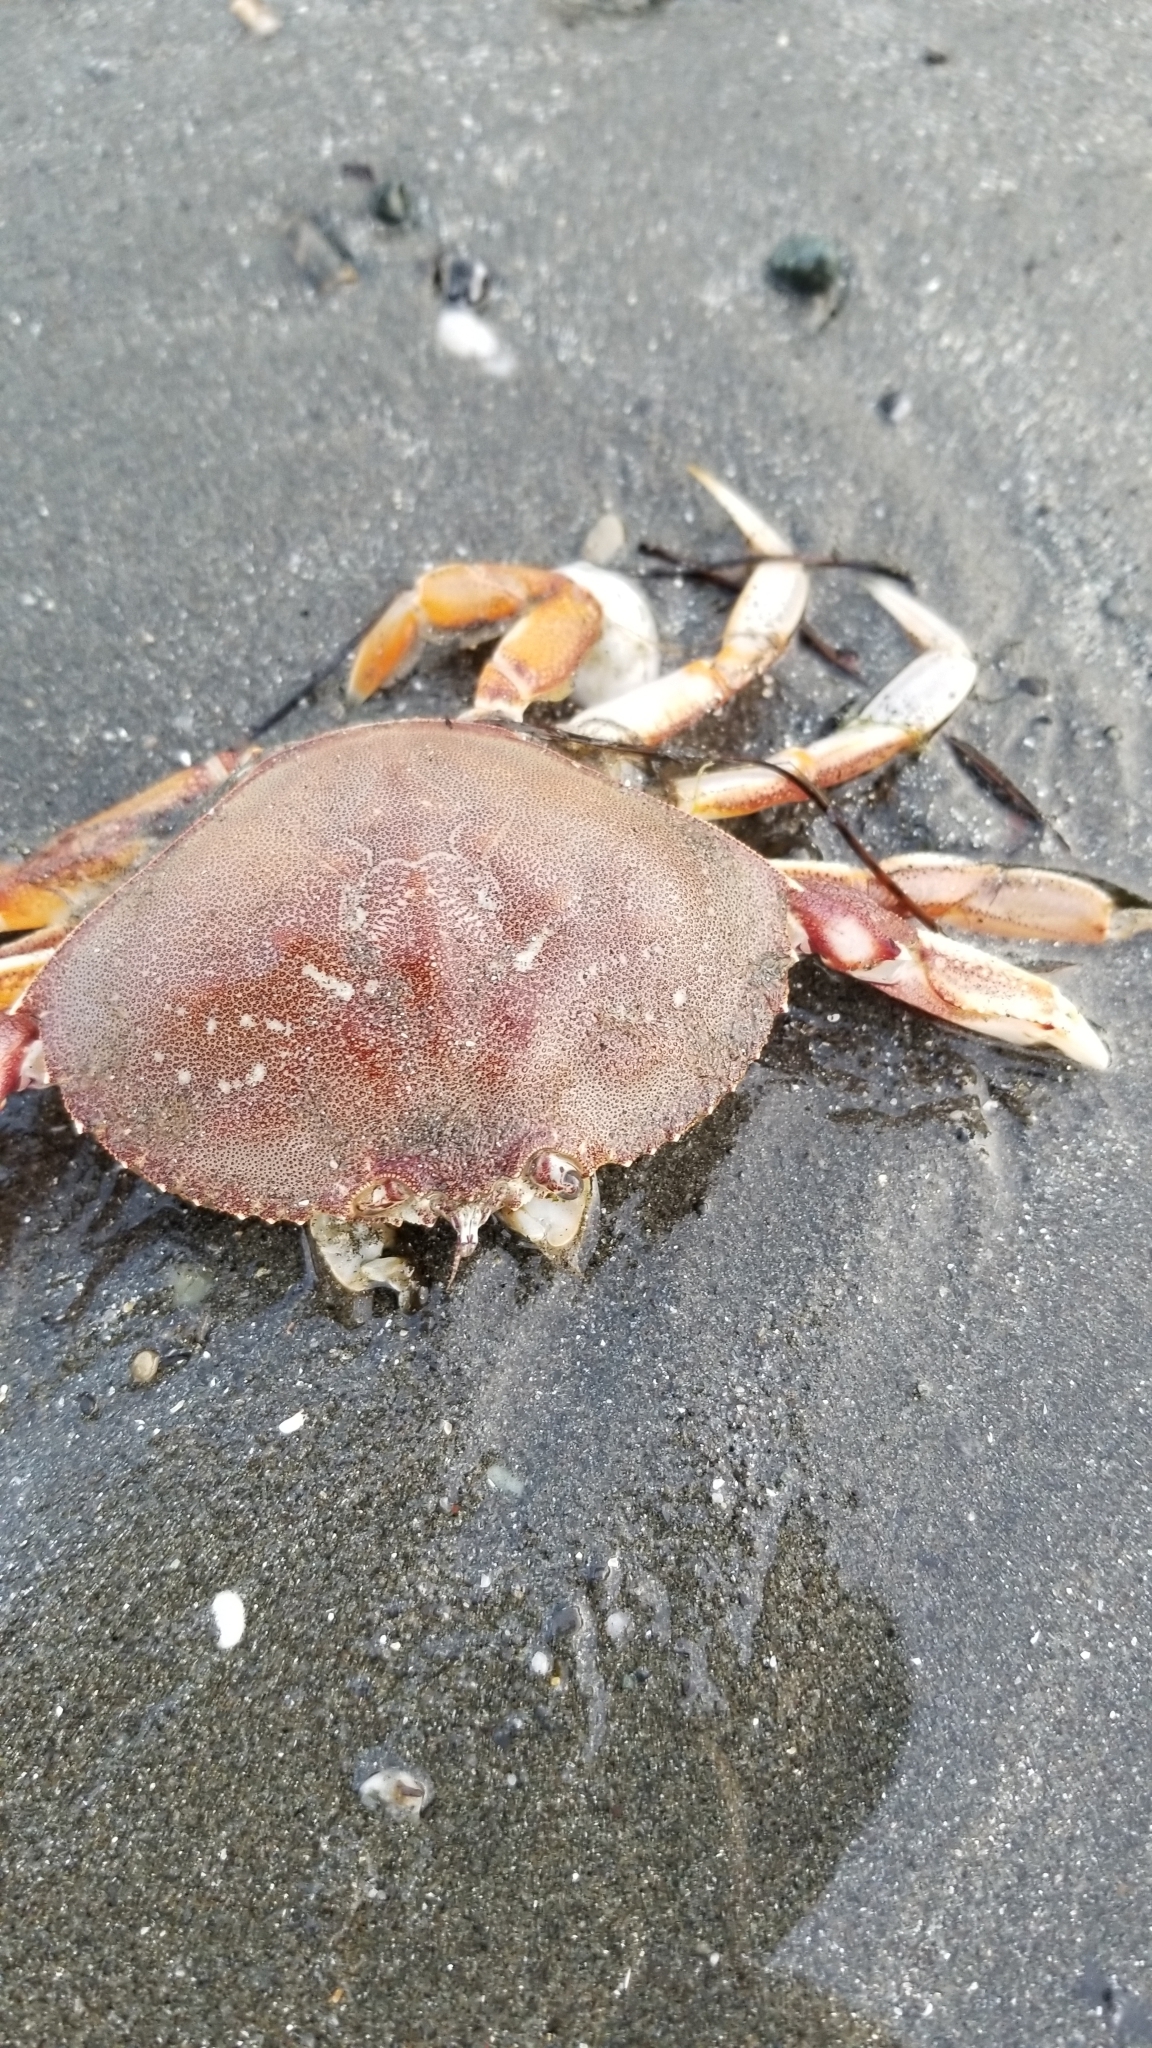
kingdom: Animalia
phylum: Arthropoda
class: Malacostraca
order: Decapoda
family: Cancridae
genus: Metacarcinus
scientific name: Metacarcinus magister
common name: Californian crab
